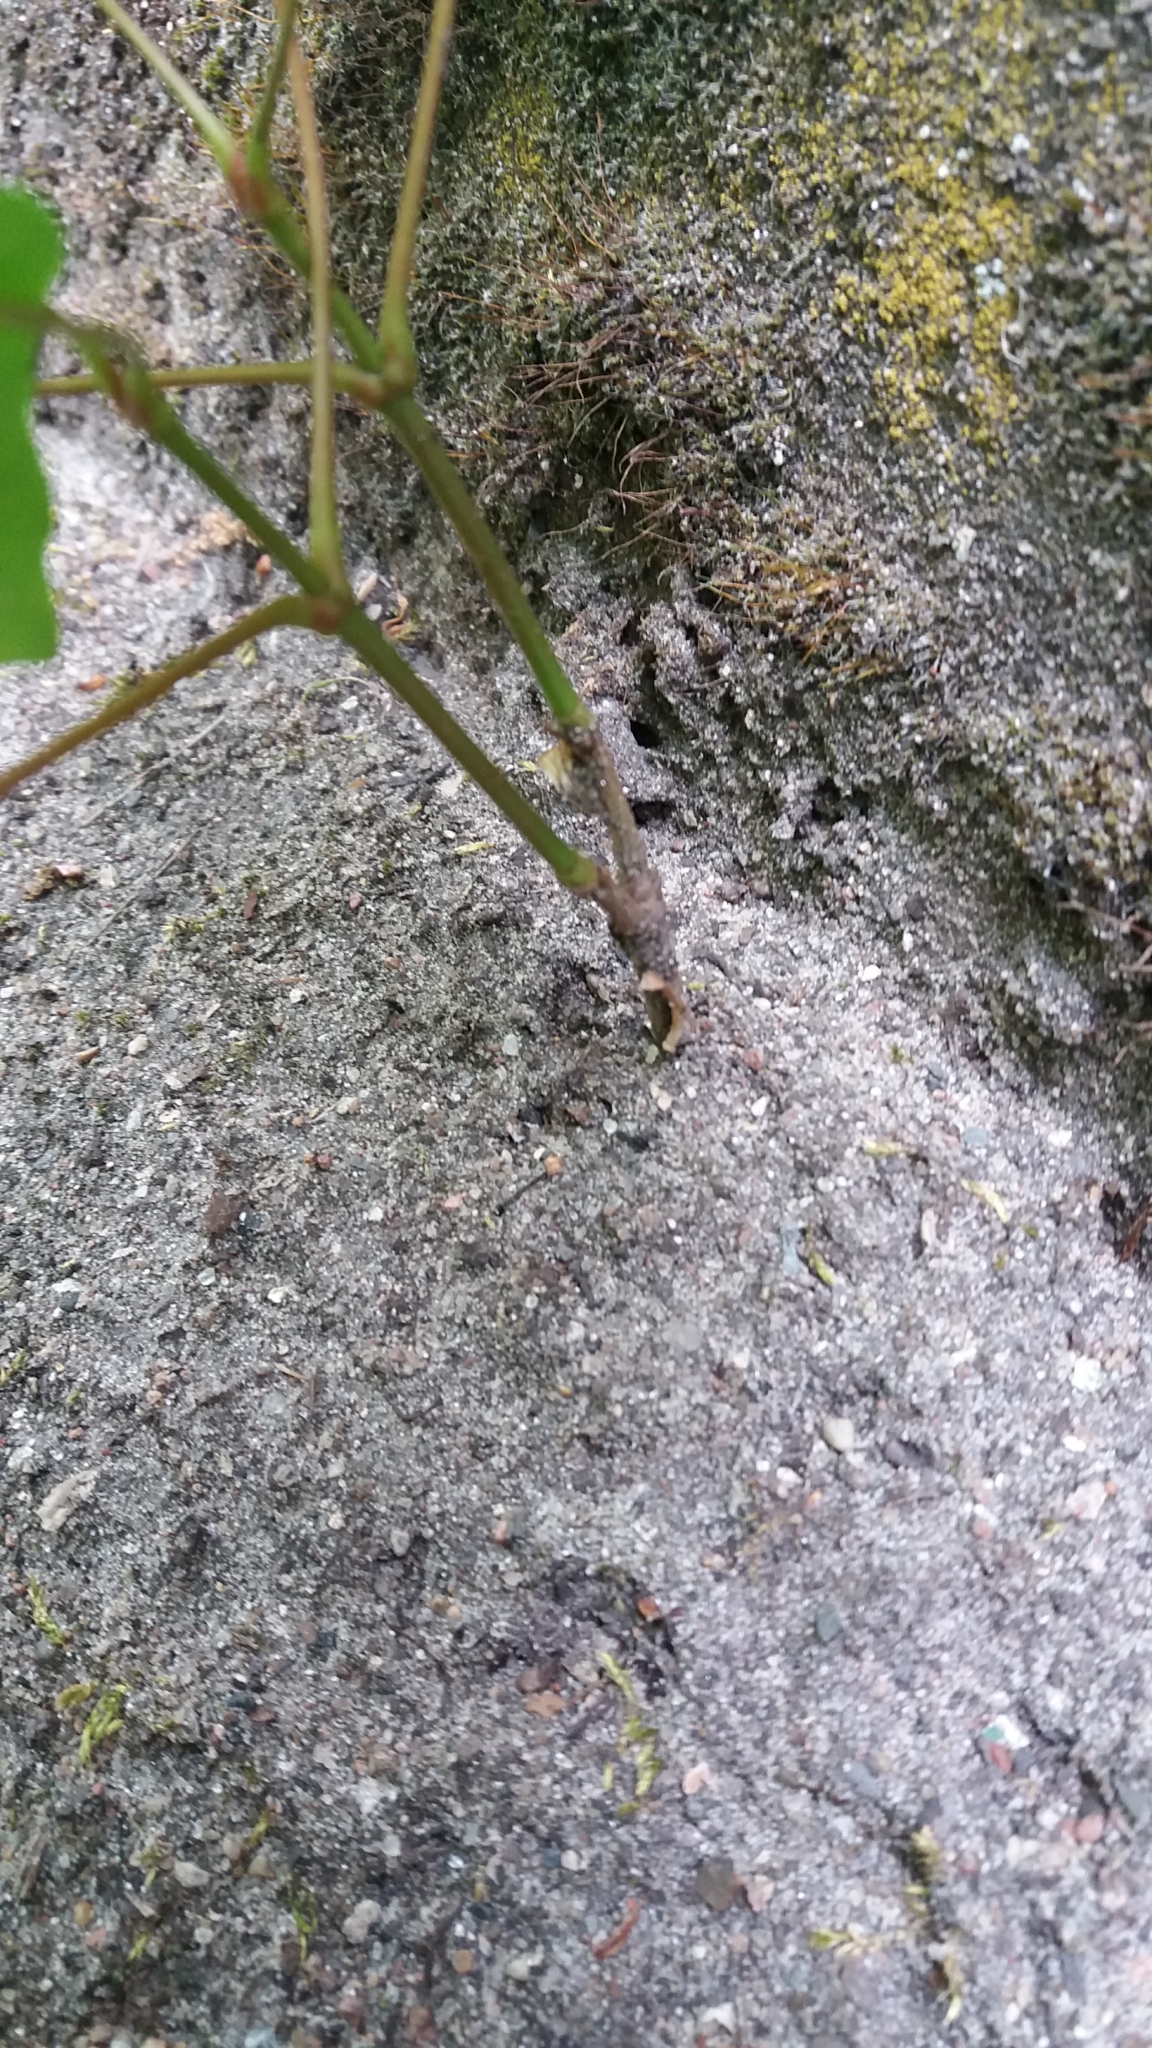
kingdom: Plantae
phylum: Tracheophyta
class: Magnoliopsida
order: Sapindales
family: Sapindaceae
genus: Acer
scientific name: Acer platanoides
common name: Norway maple
